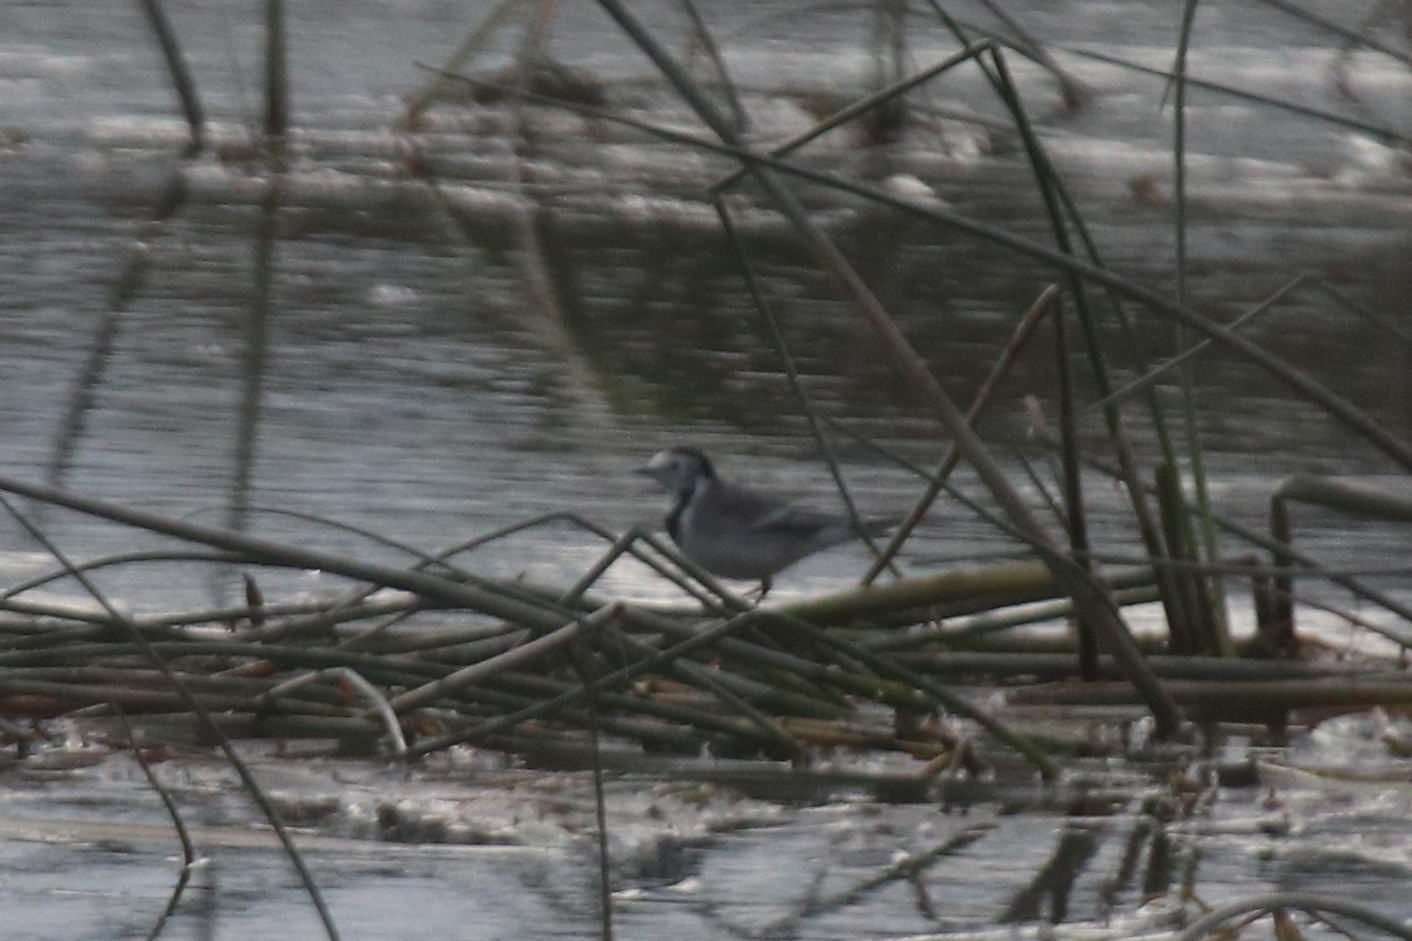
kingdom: Animalia
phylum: Chordata
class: Aves
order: Passeriformes
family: Motacillidae
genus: Motacilla
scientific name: Motacilla alba
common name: White wagtail
